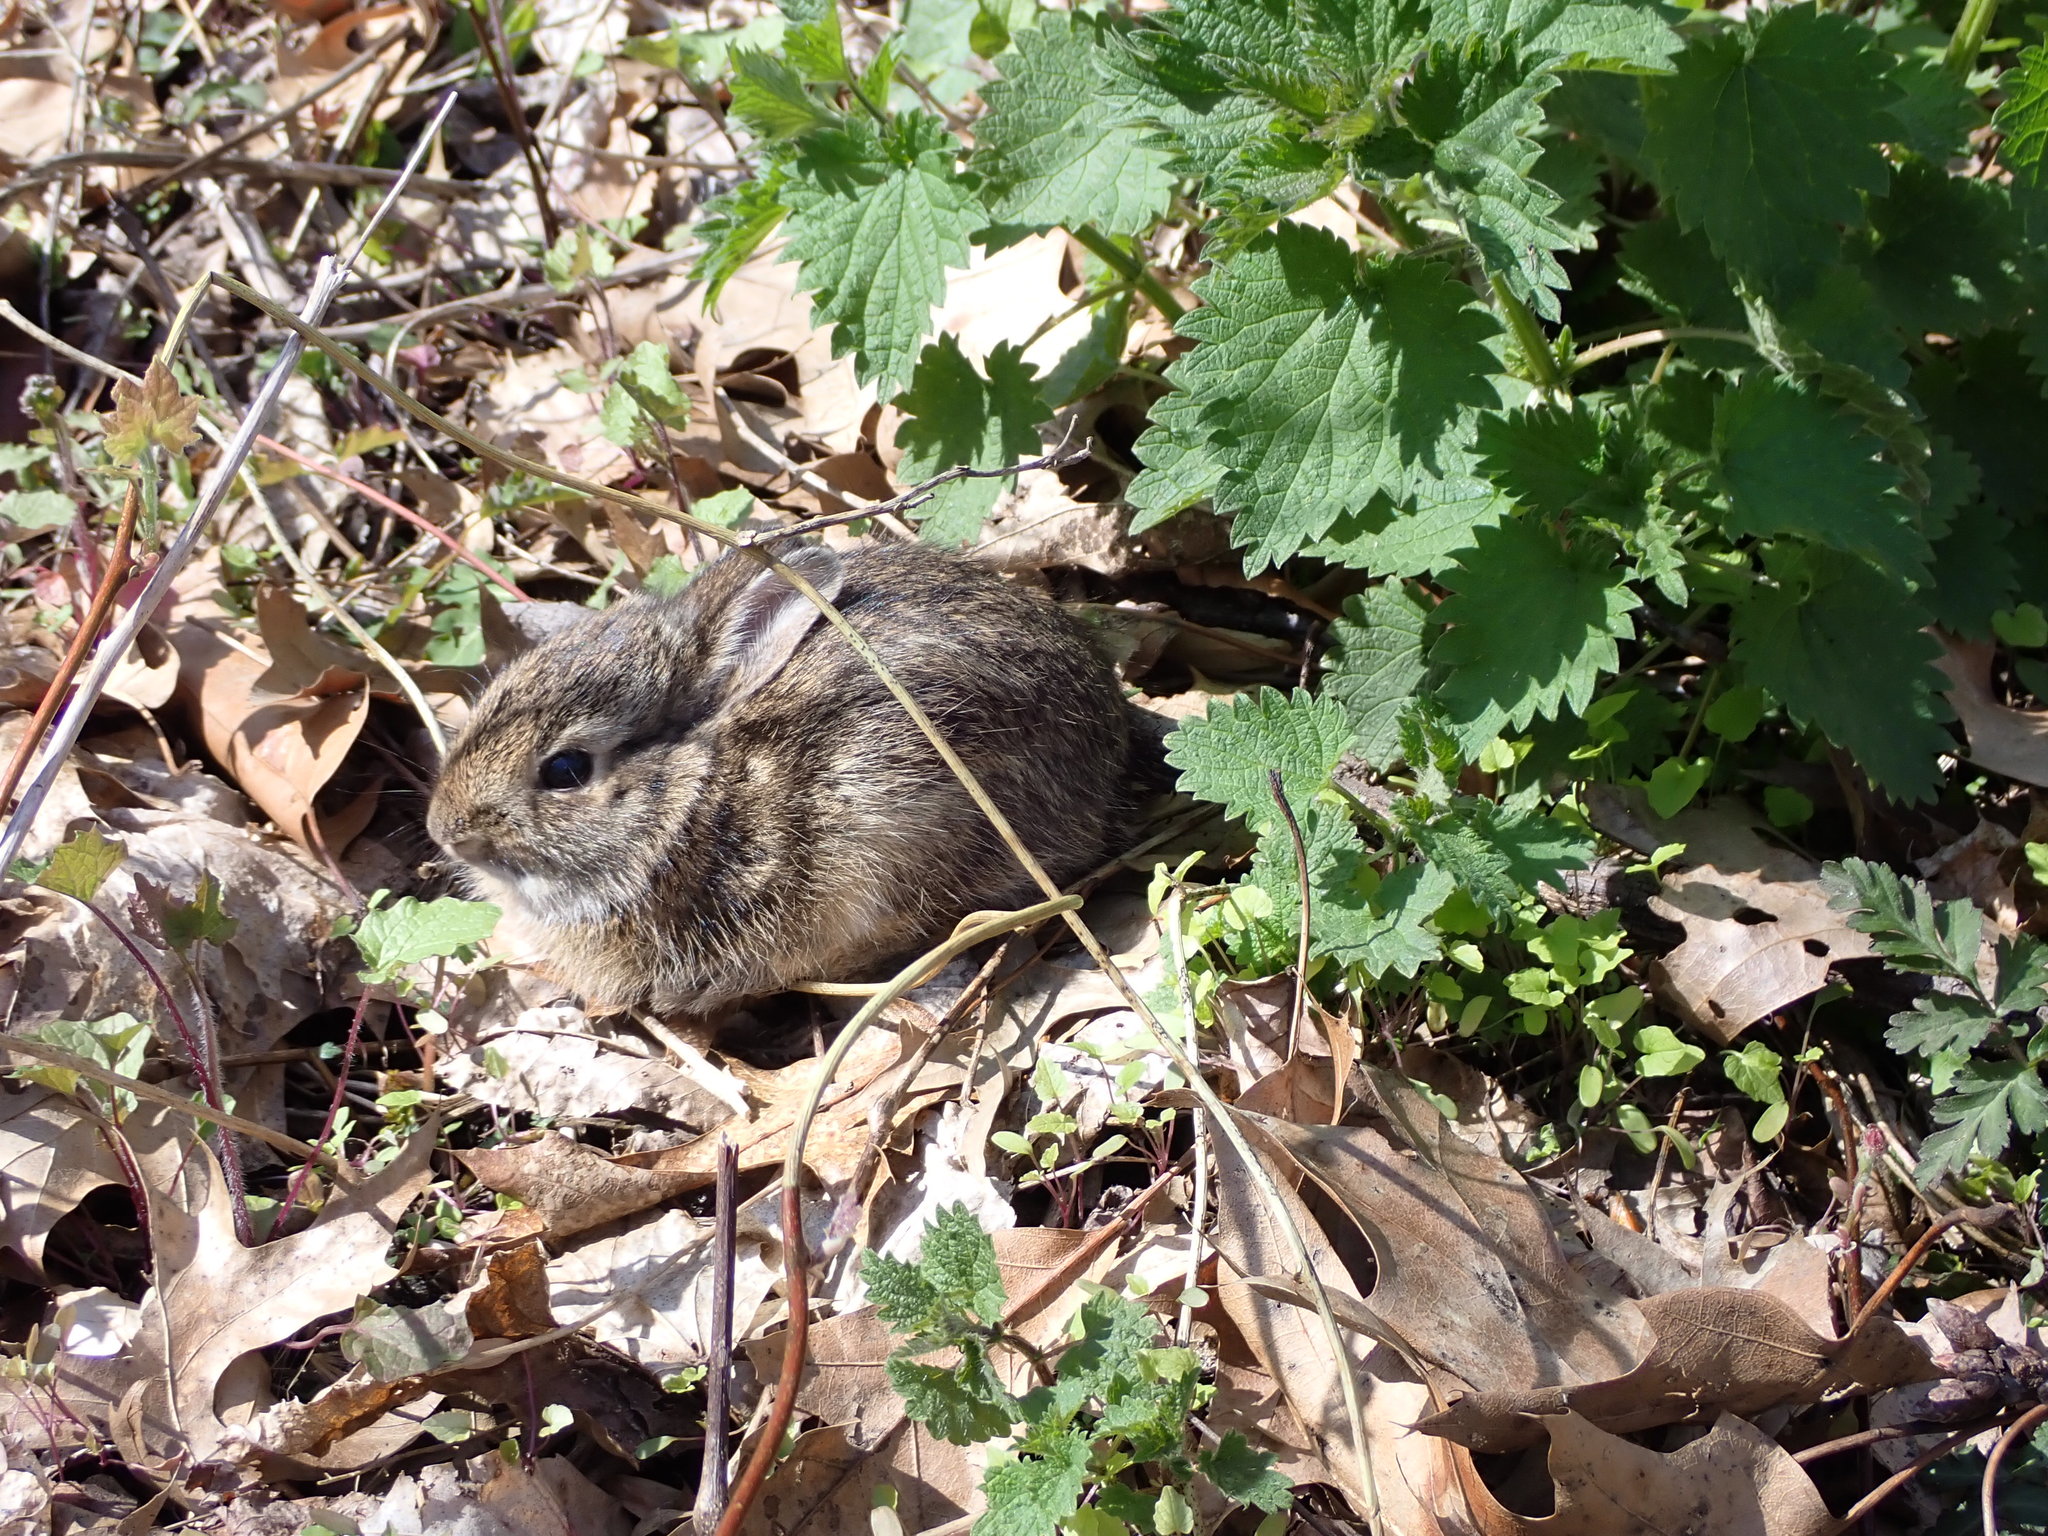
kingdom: Animalia
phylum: Chordata
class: Mammalia
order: Lagomorpha
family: Leporidae
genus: Sylvilagus
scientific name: Sylvilagus floridanus
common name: Eastern cottontail
